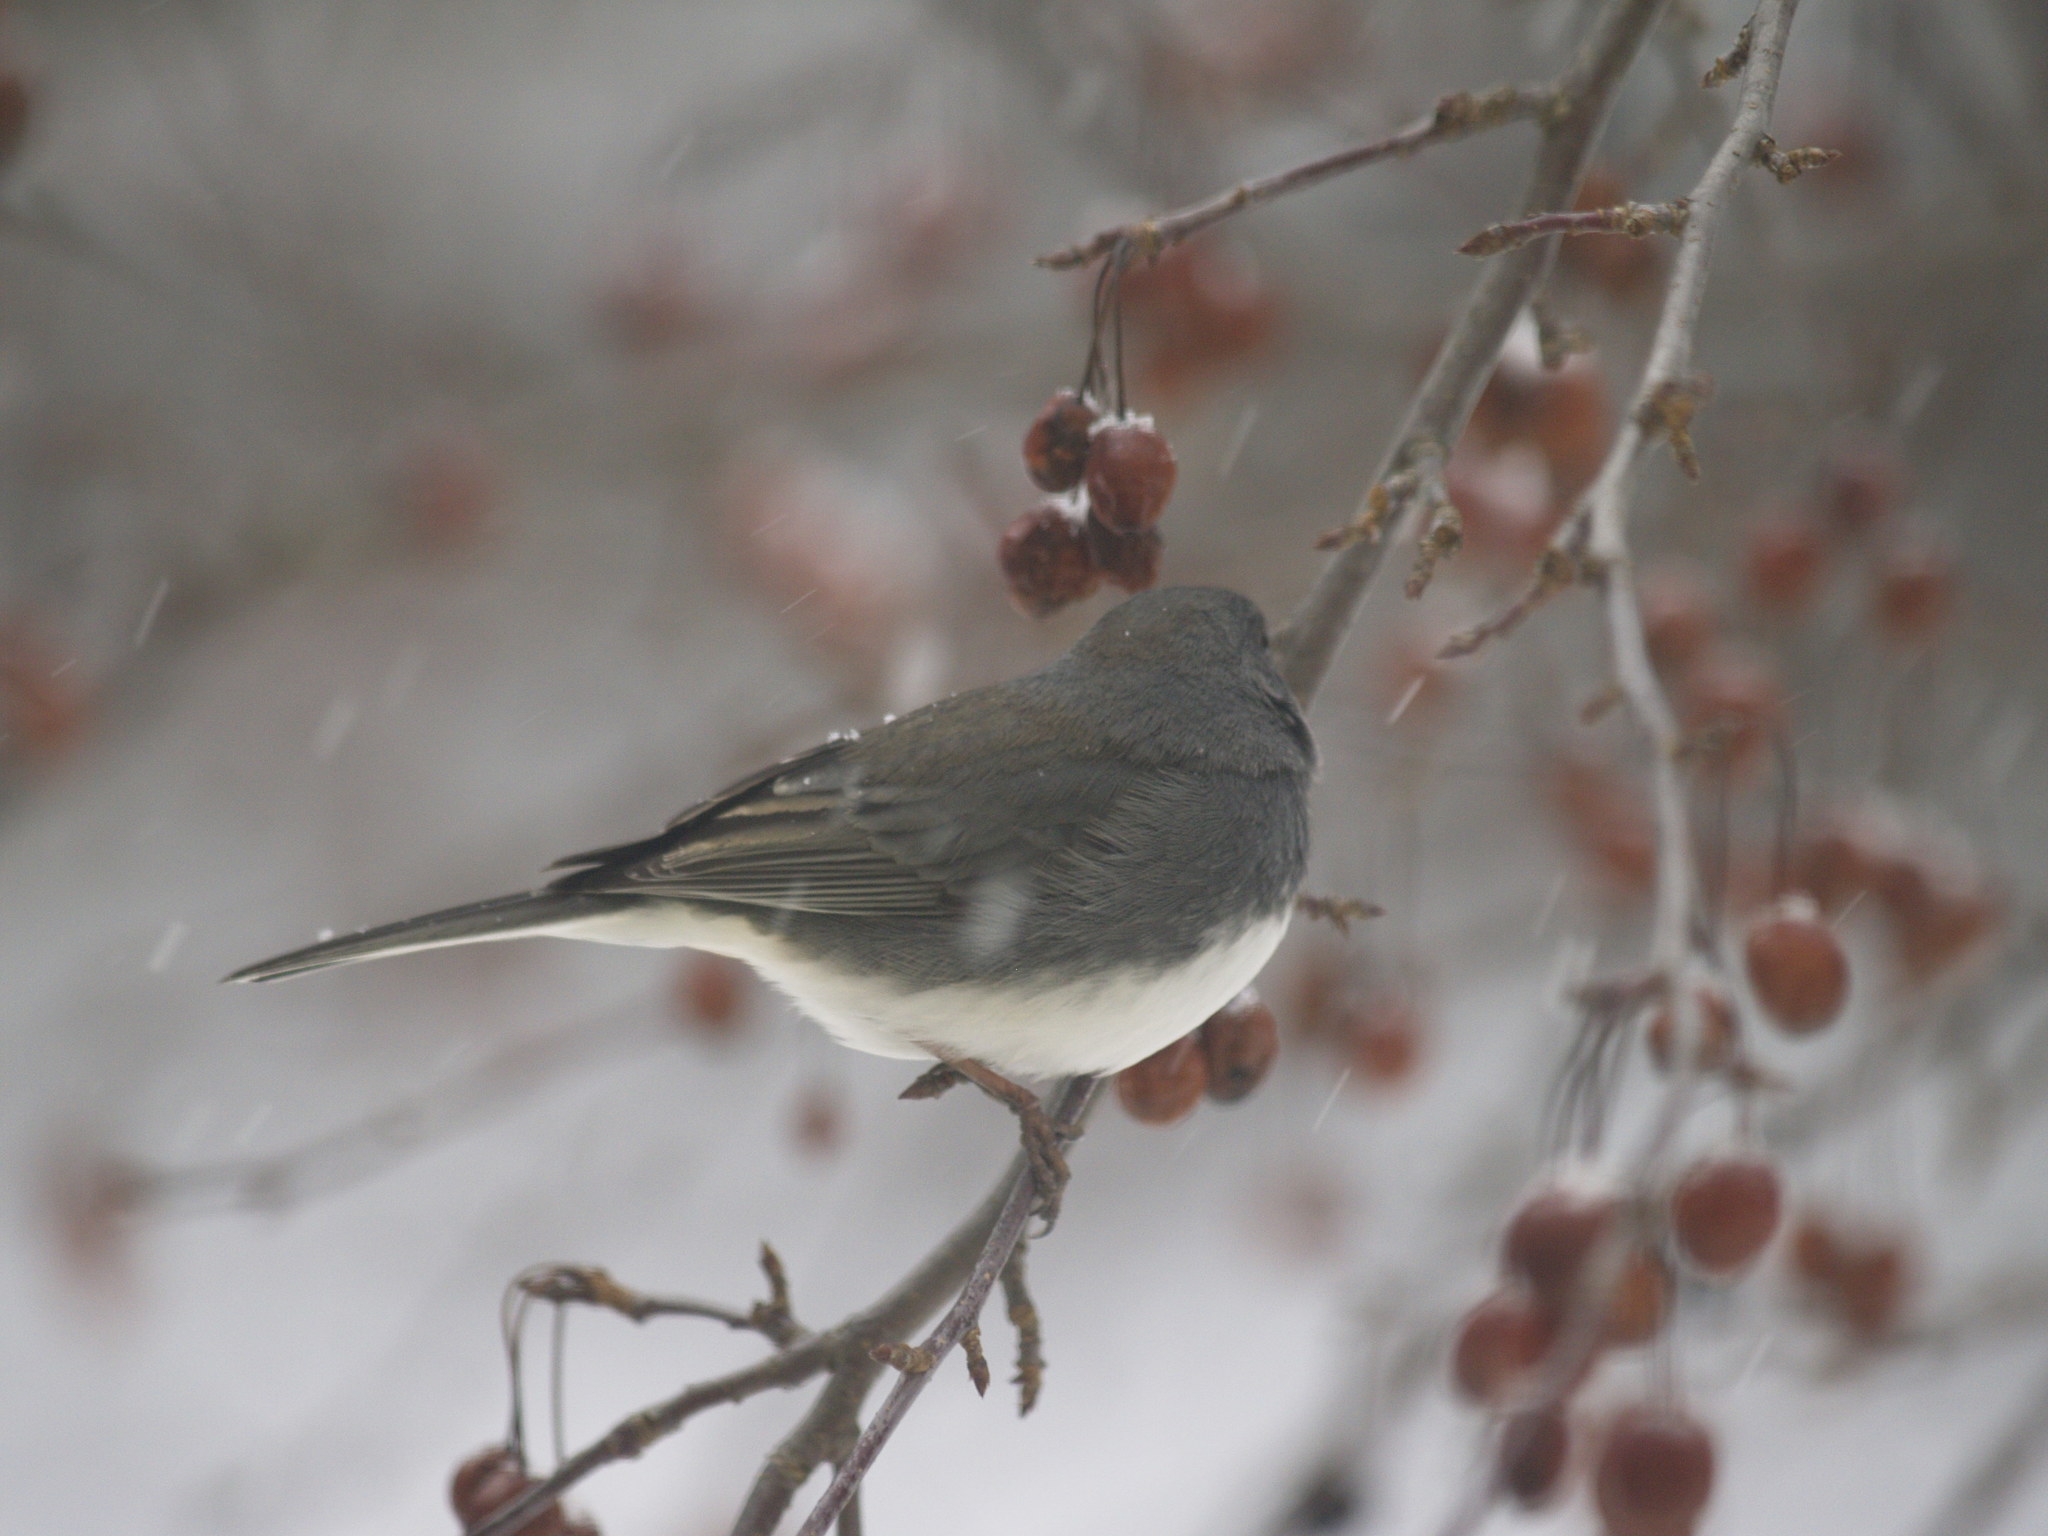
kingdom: Animalia
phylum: Chordata
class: Aves
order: Passeriformes
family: Passerellidae
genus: Junco
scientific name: Junco hyemalis
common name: Dark-eyed junco
